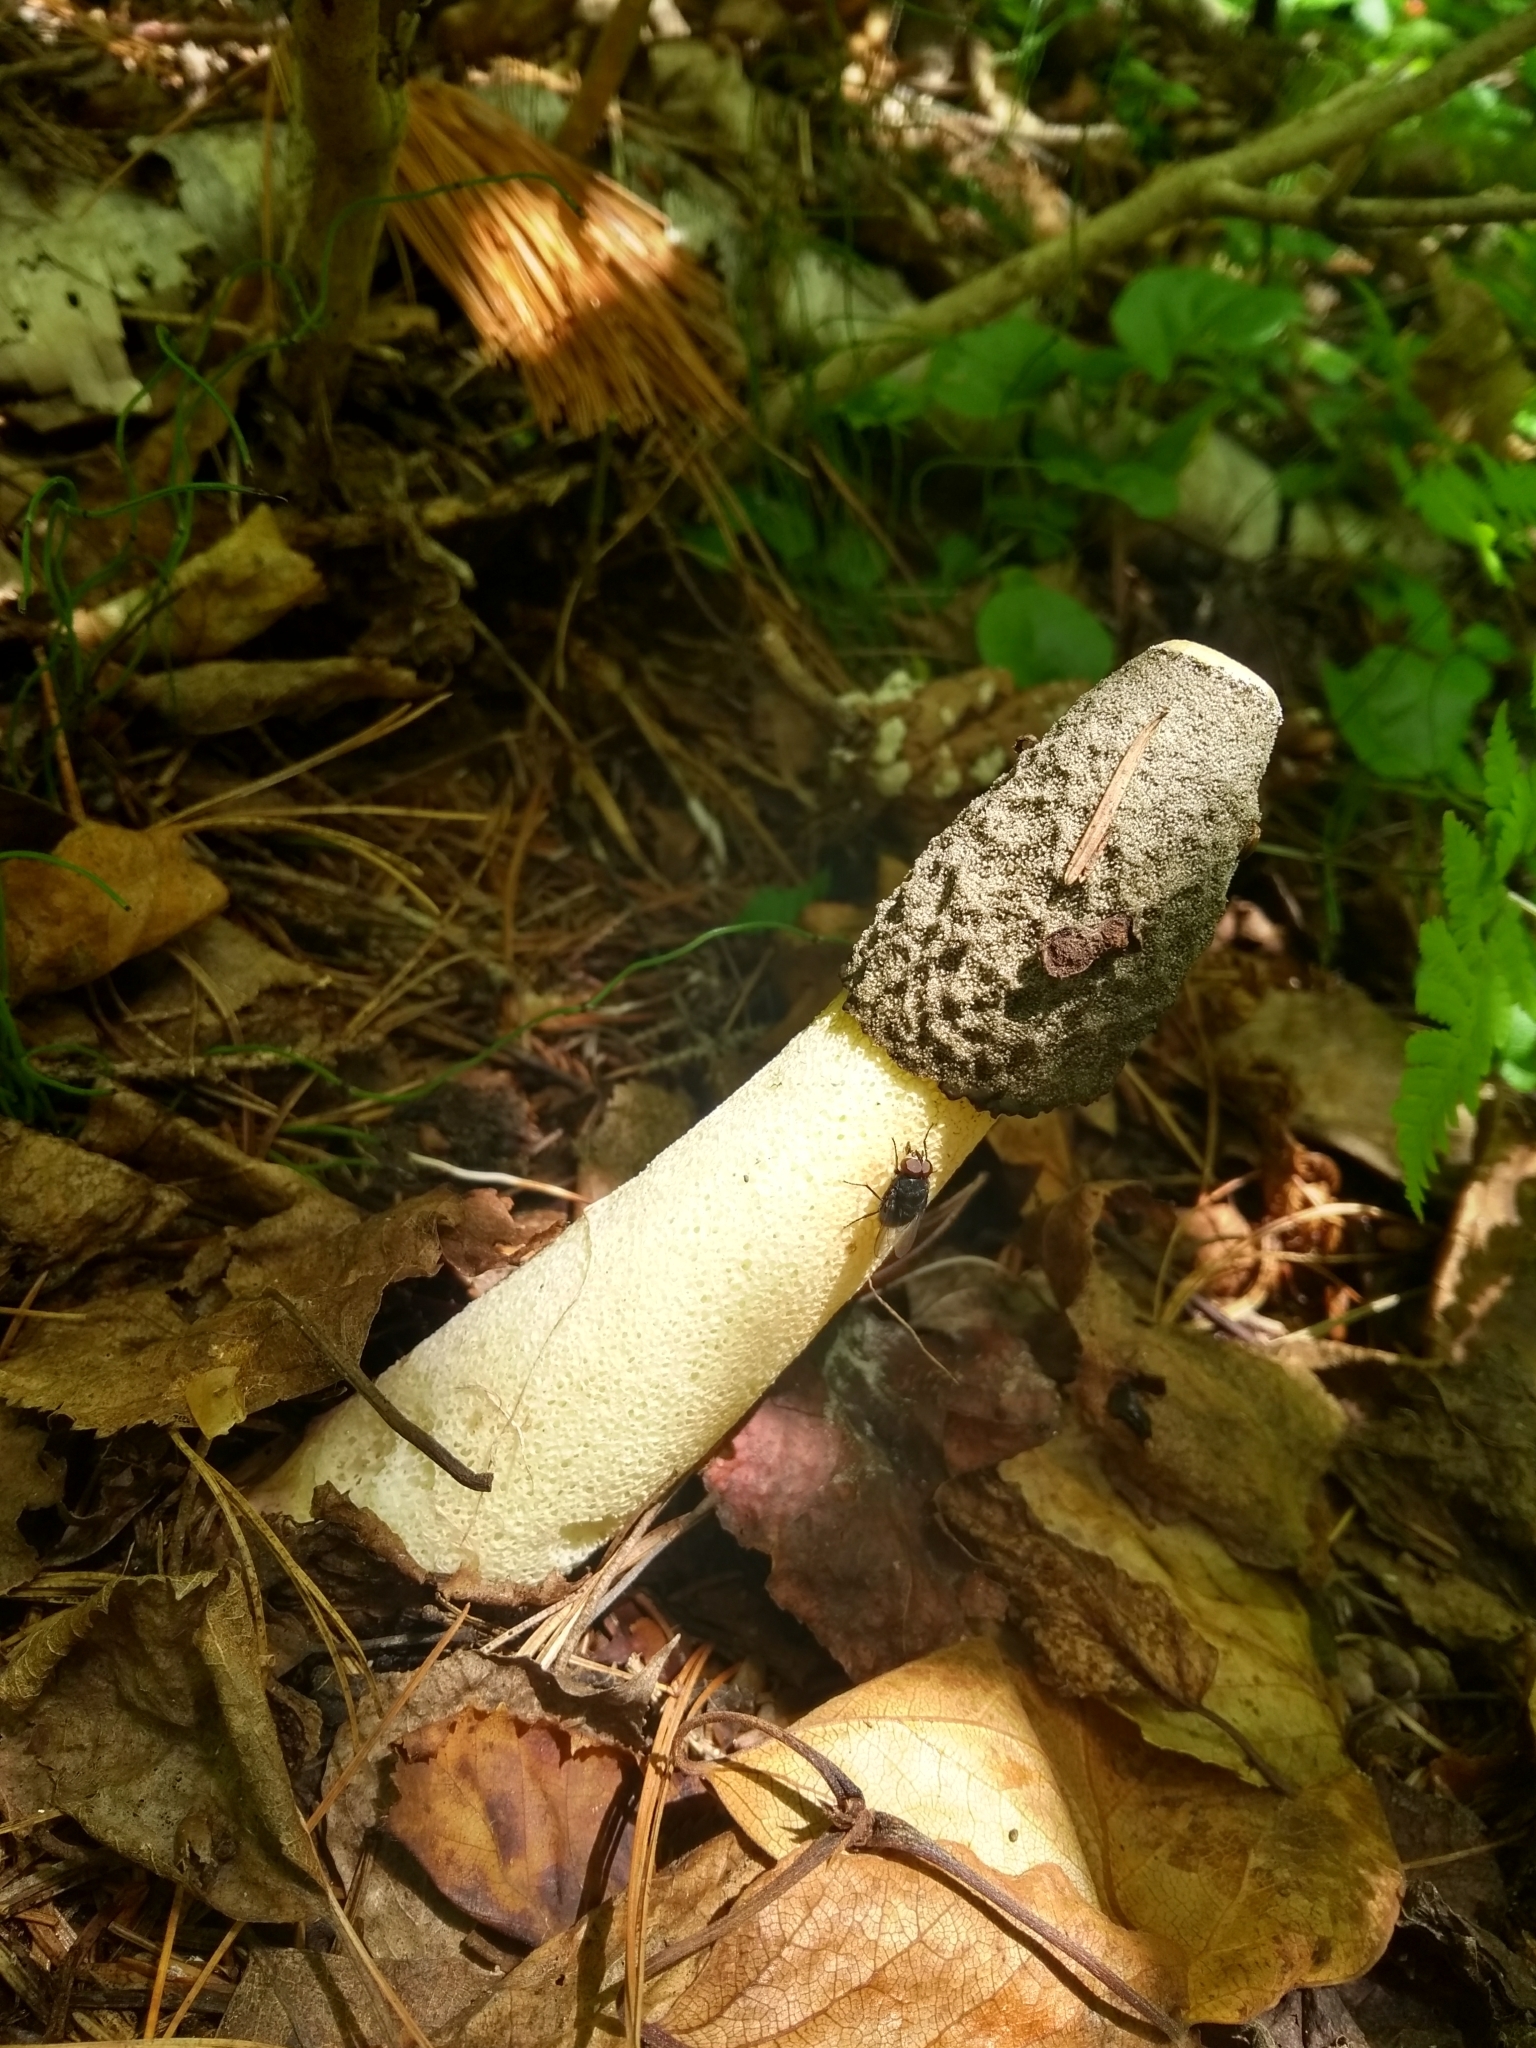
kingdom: Fungi
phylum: Basidiomycota
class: Agaricomycetes
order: Phallales
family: Phallaceae
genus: Phallus
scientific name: Phallus ravenelii
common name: Ravenel's stinkhorn
